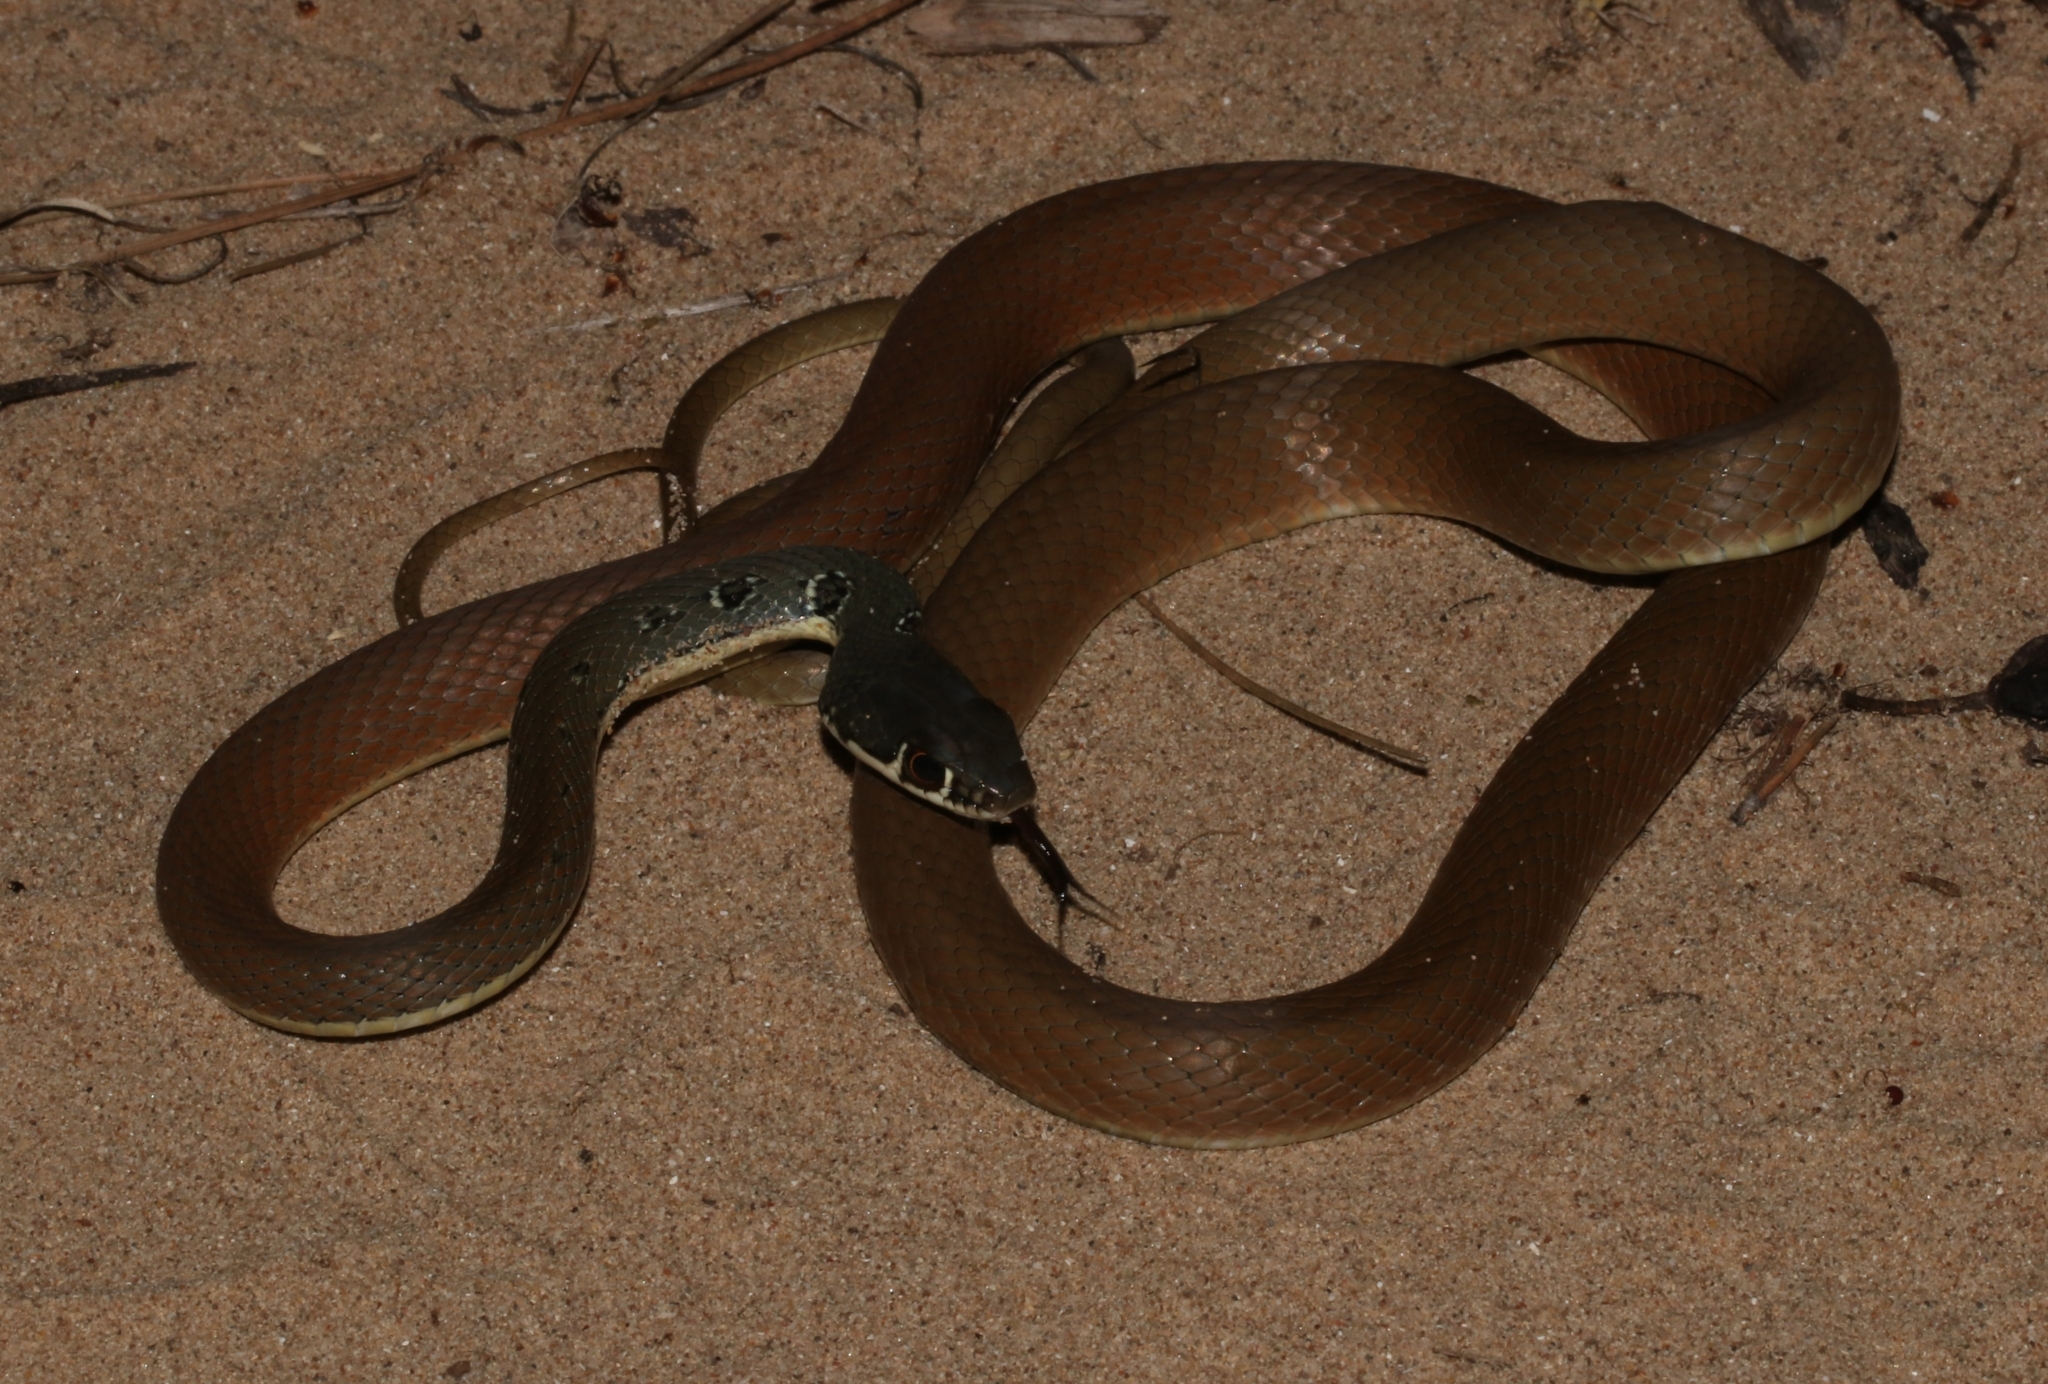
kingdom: Animalia
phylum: Chordata
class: Squamata
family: Colubridae
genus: Platyceps
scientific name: Platyceps najadum
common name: Dahl's whip snake
